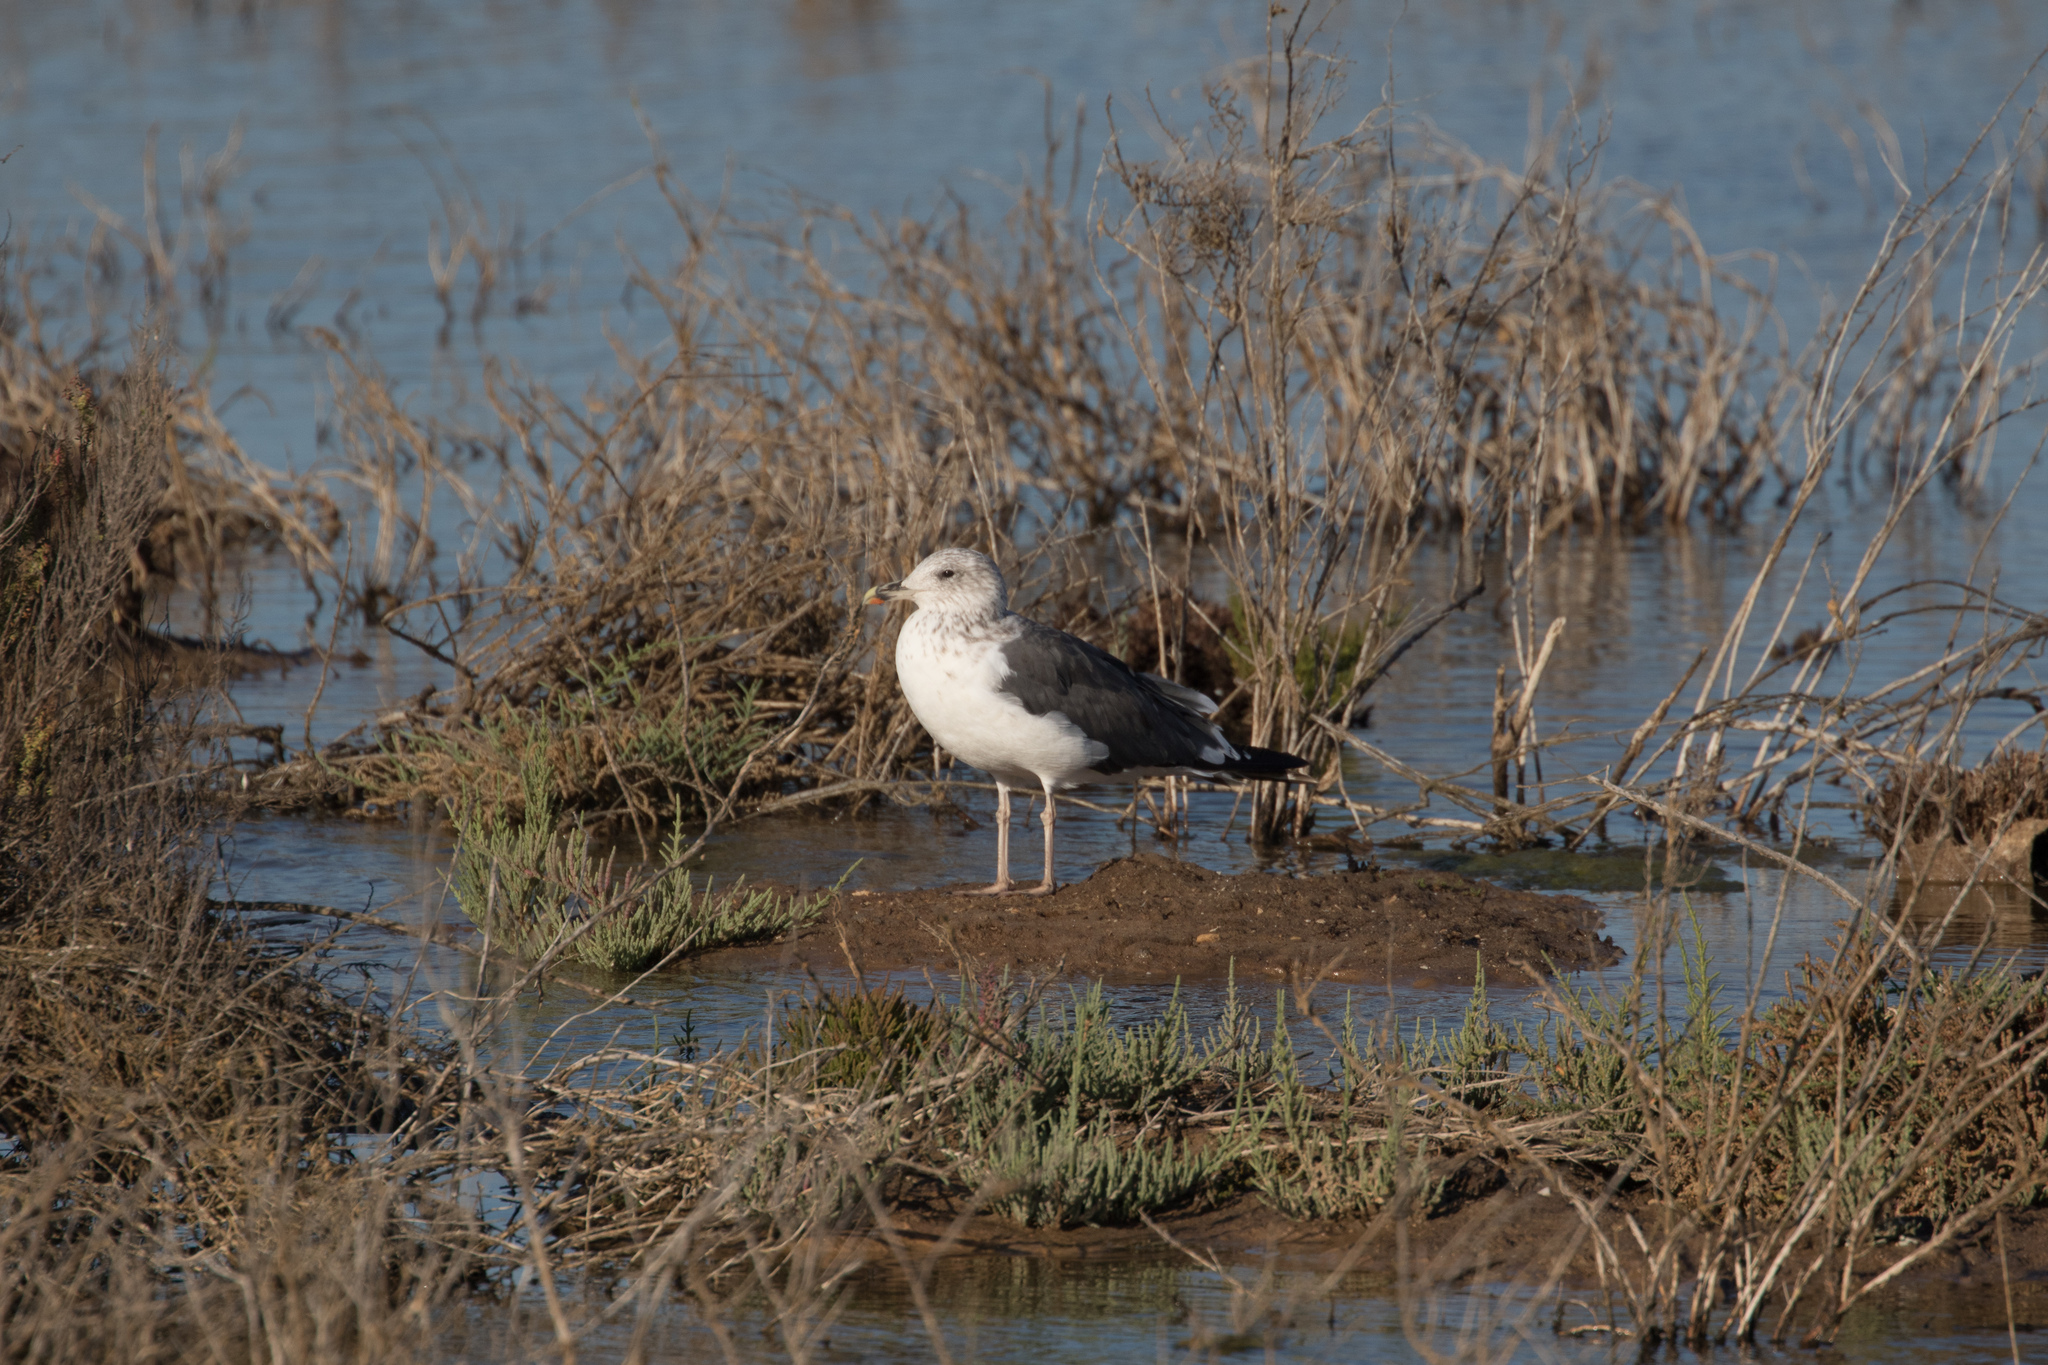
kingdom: Animalia
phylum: Chordata
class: Aves
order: Charadriiformes
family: Laridae
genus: Larus
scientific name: Larus fuscus
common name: Lesser black-backed gull
